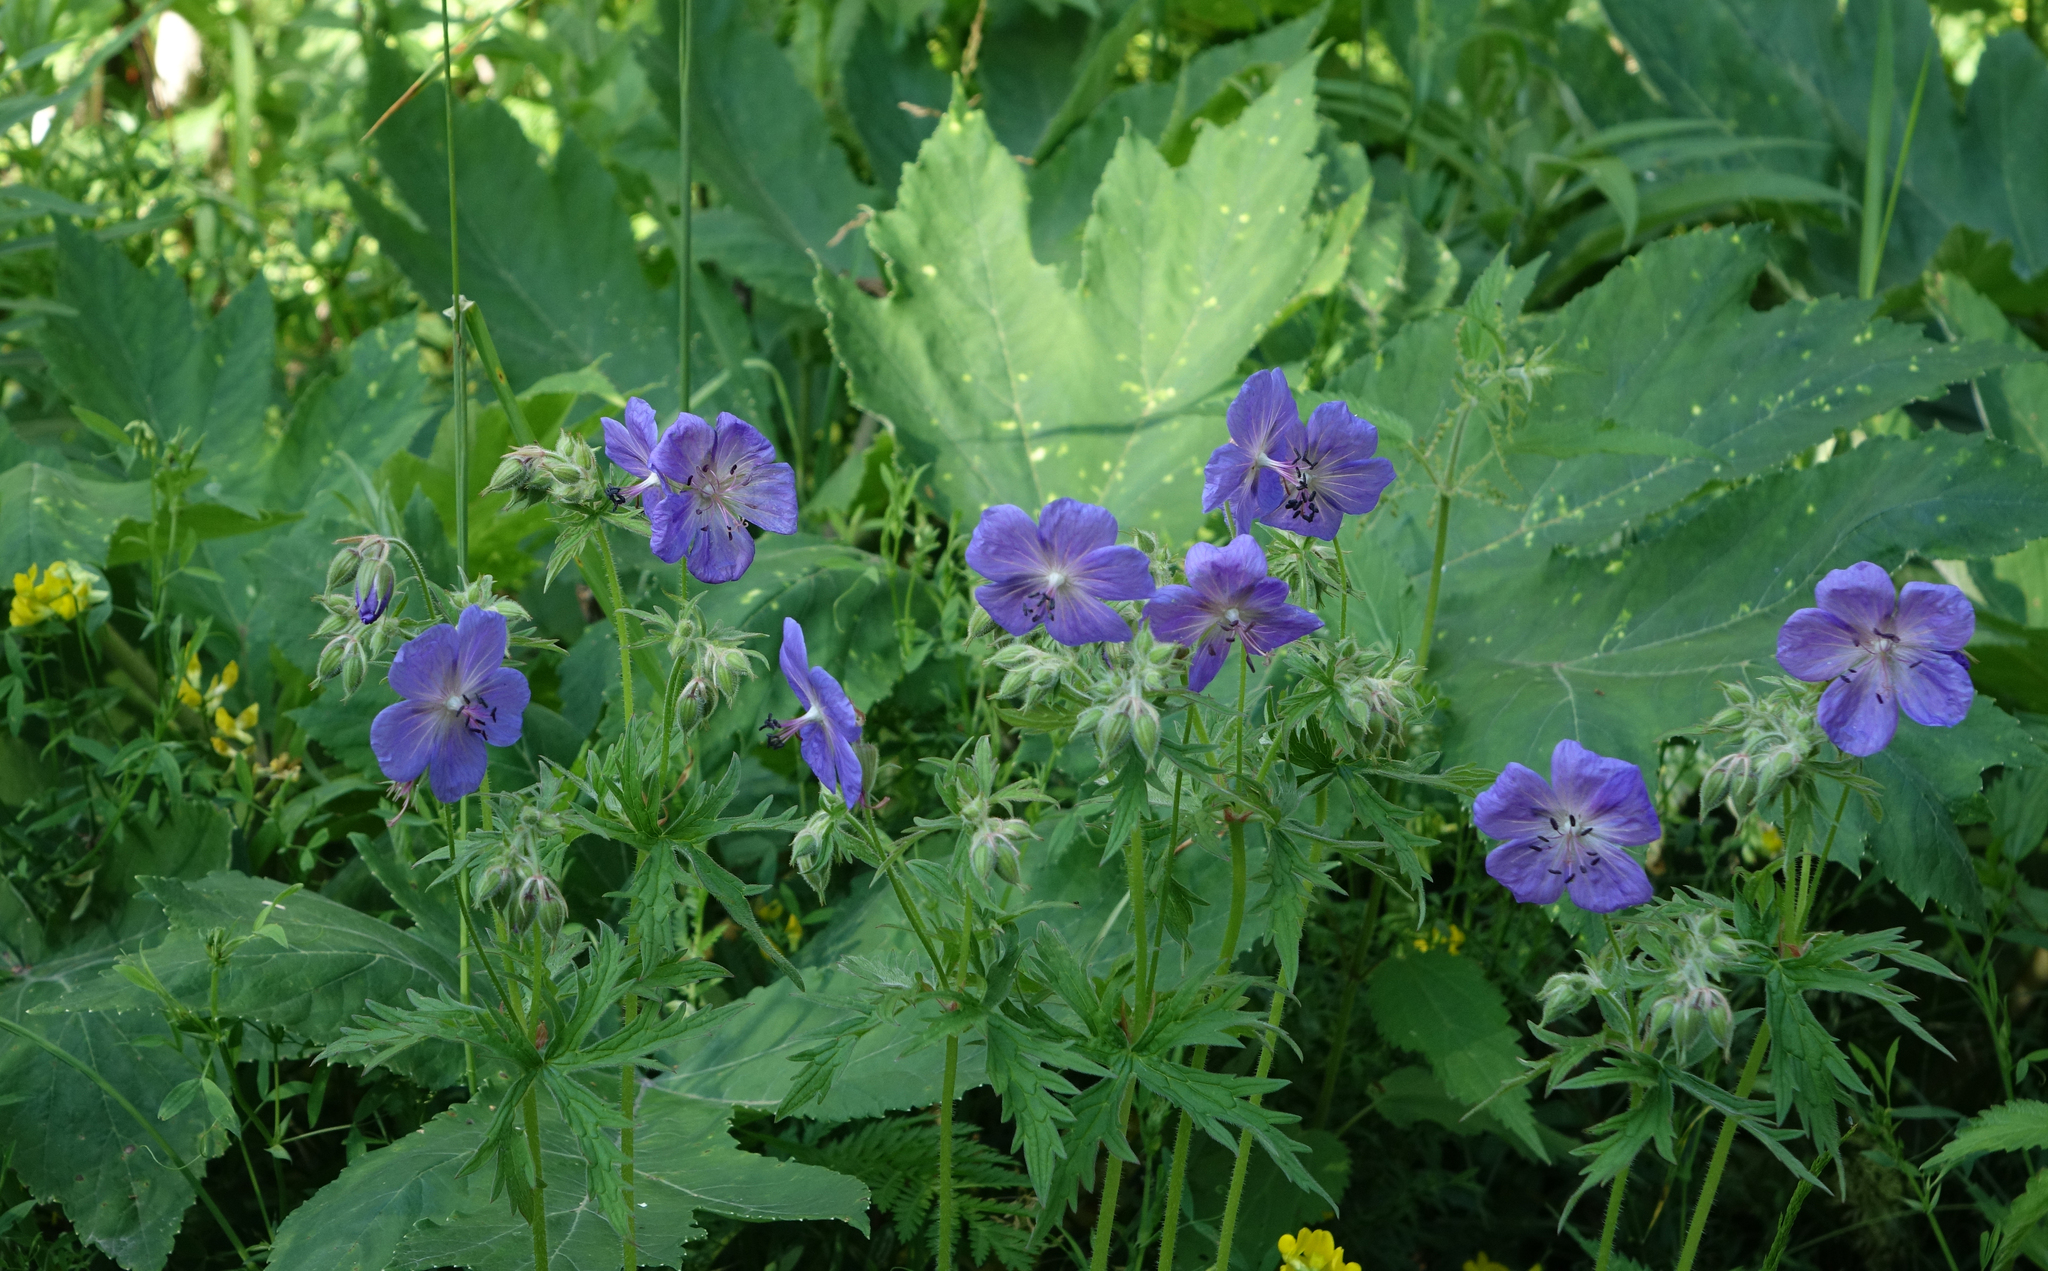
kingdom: Plantae
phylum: Tracheophyta
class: Magnoliopsida
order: Geraniales
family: Geraniaceae
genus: Geranium
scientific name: Geranium pratense
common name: Meadow crane's-bill
